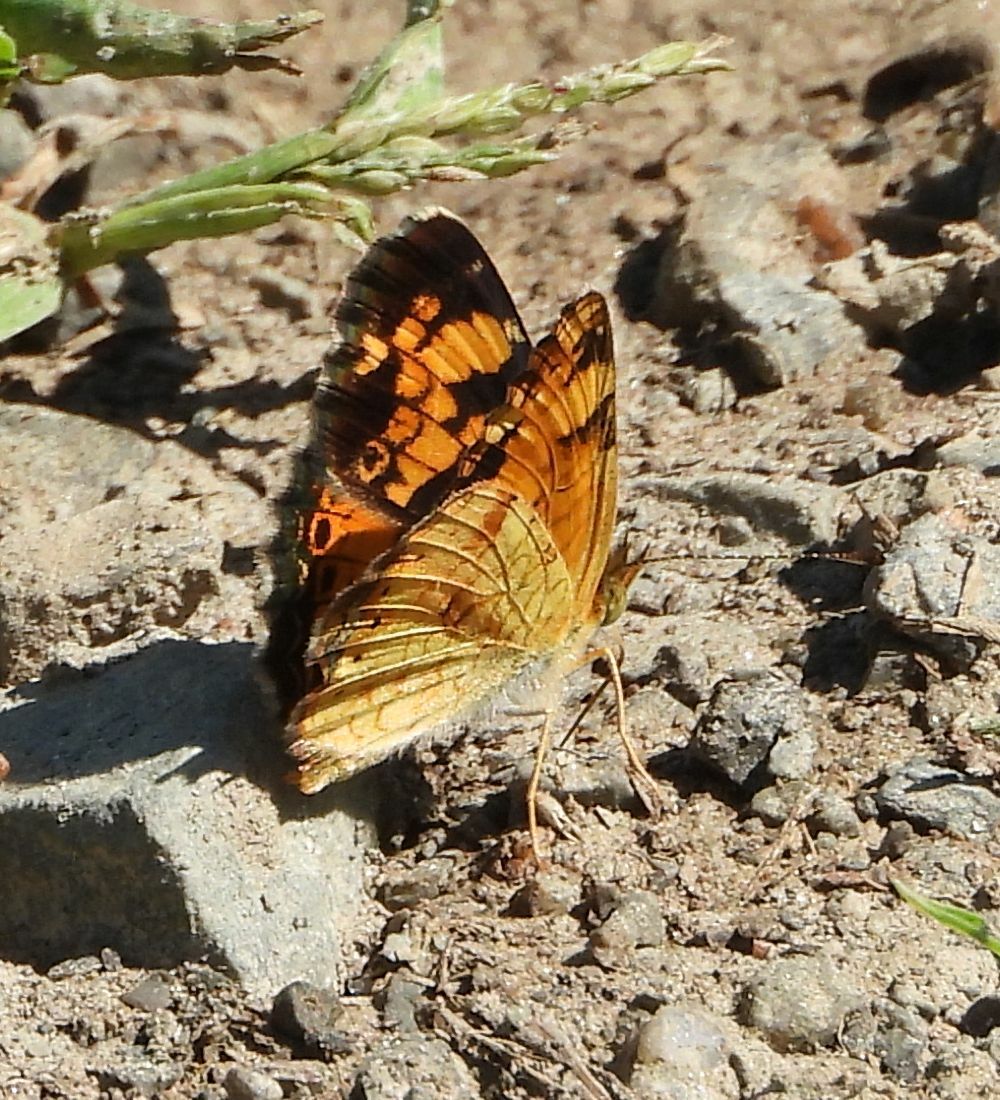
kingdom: Animalia
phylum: Arthropoda
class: Insecta
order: Lepidoptera
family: Nymphalidae
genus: Phyciodes
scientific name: Phyciodes tharos
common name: Pearl crescent
